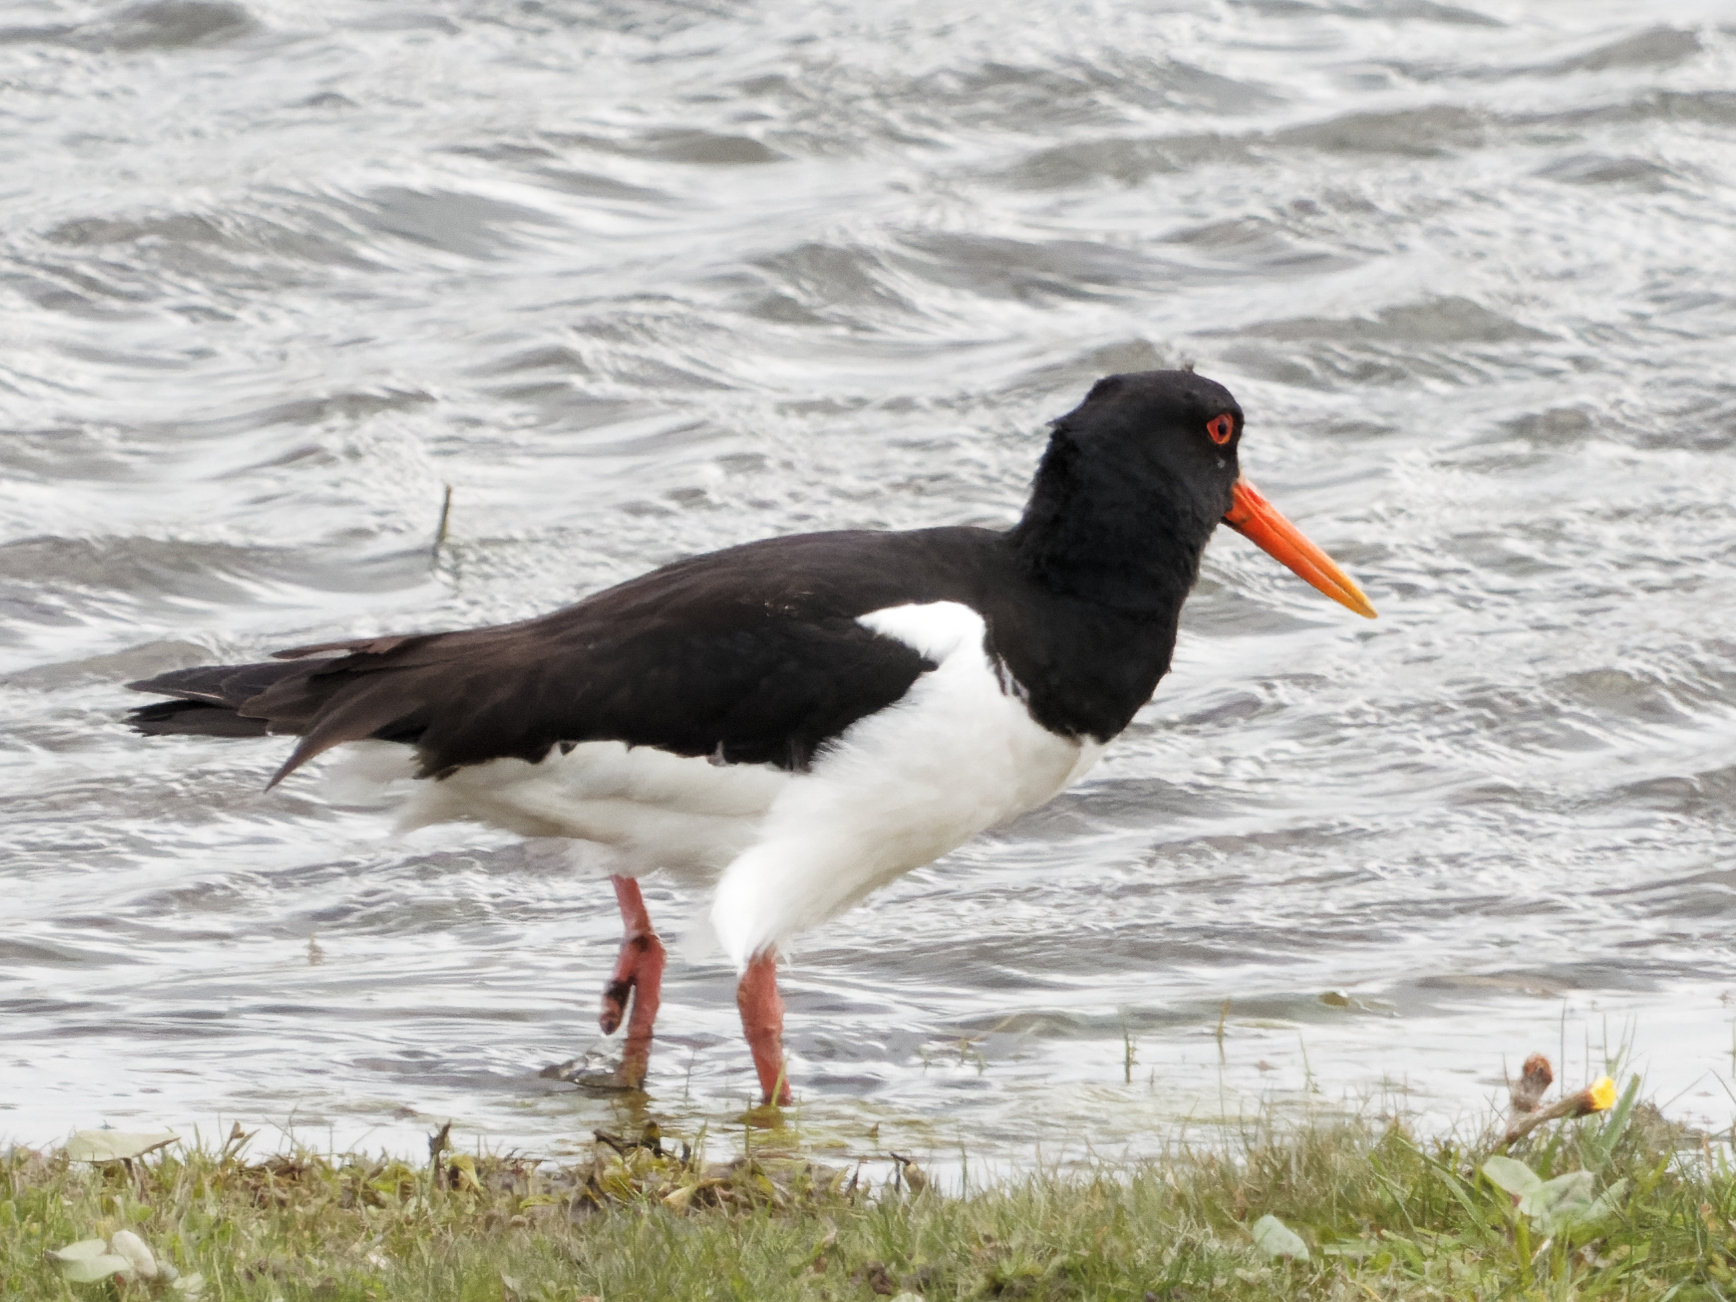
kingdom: Animalia
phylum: Chordata
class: Aves
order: Charadriiformes
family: Haematopodidae
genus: Haematopus
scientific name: Haematopus ostralegus
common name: Eurasian oystercatcher
